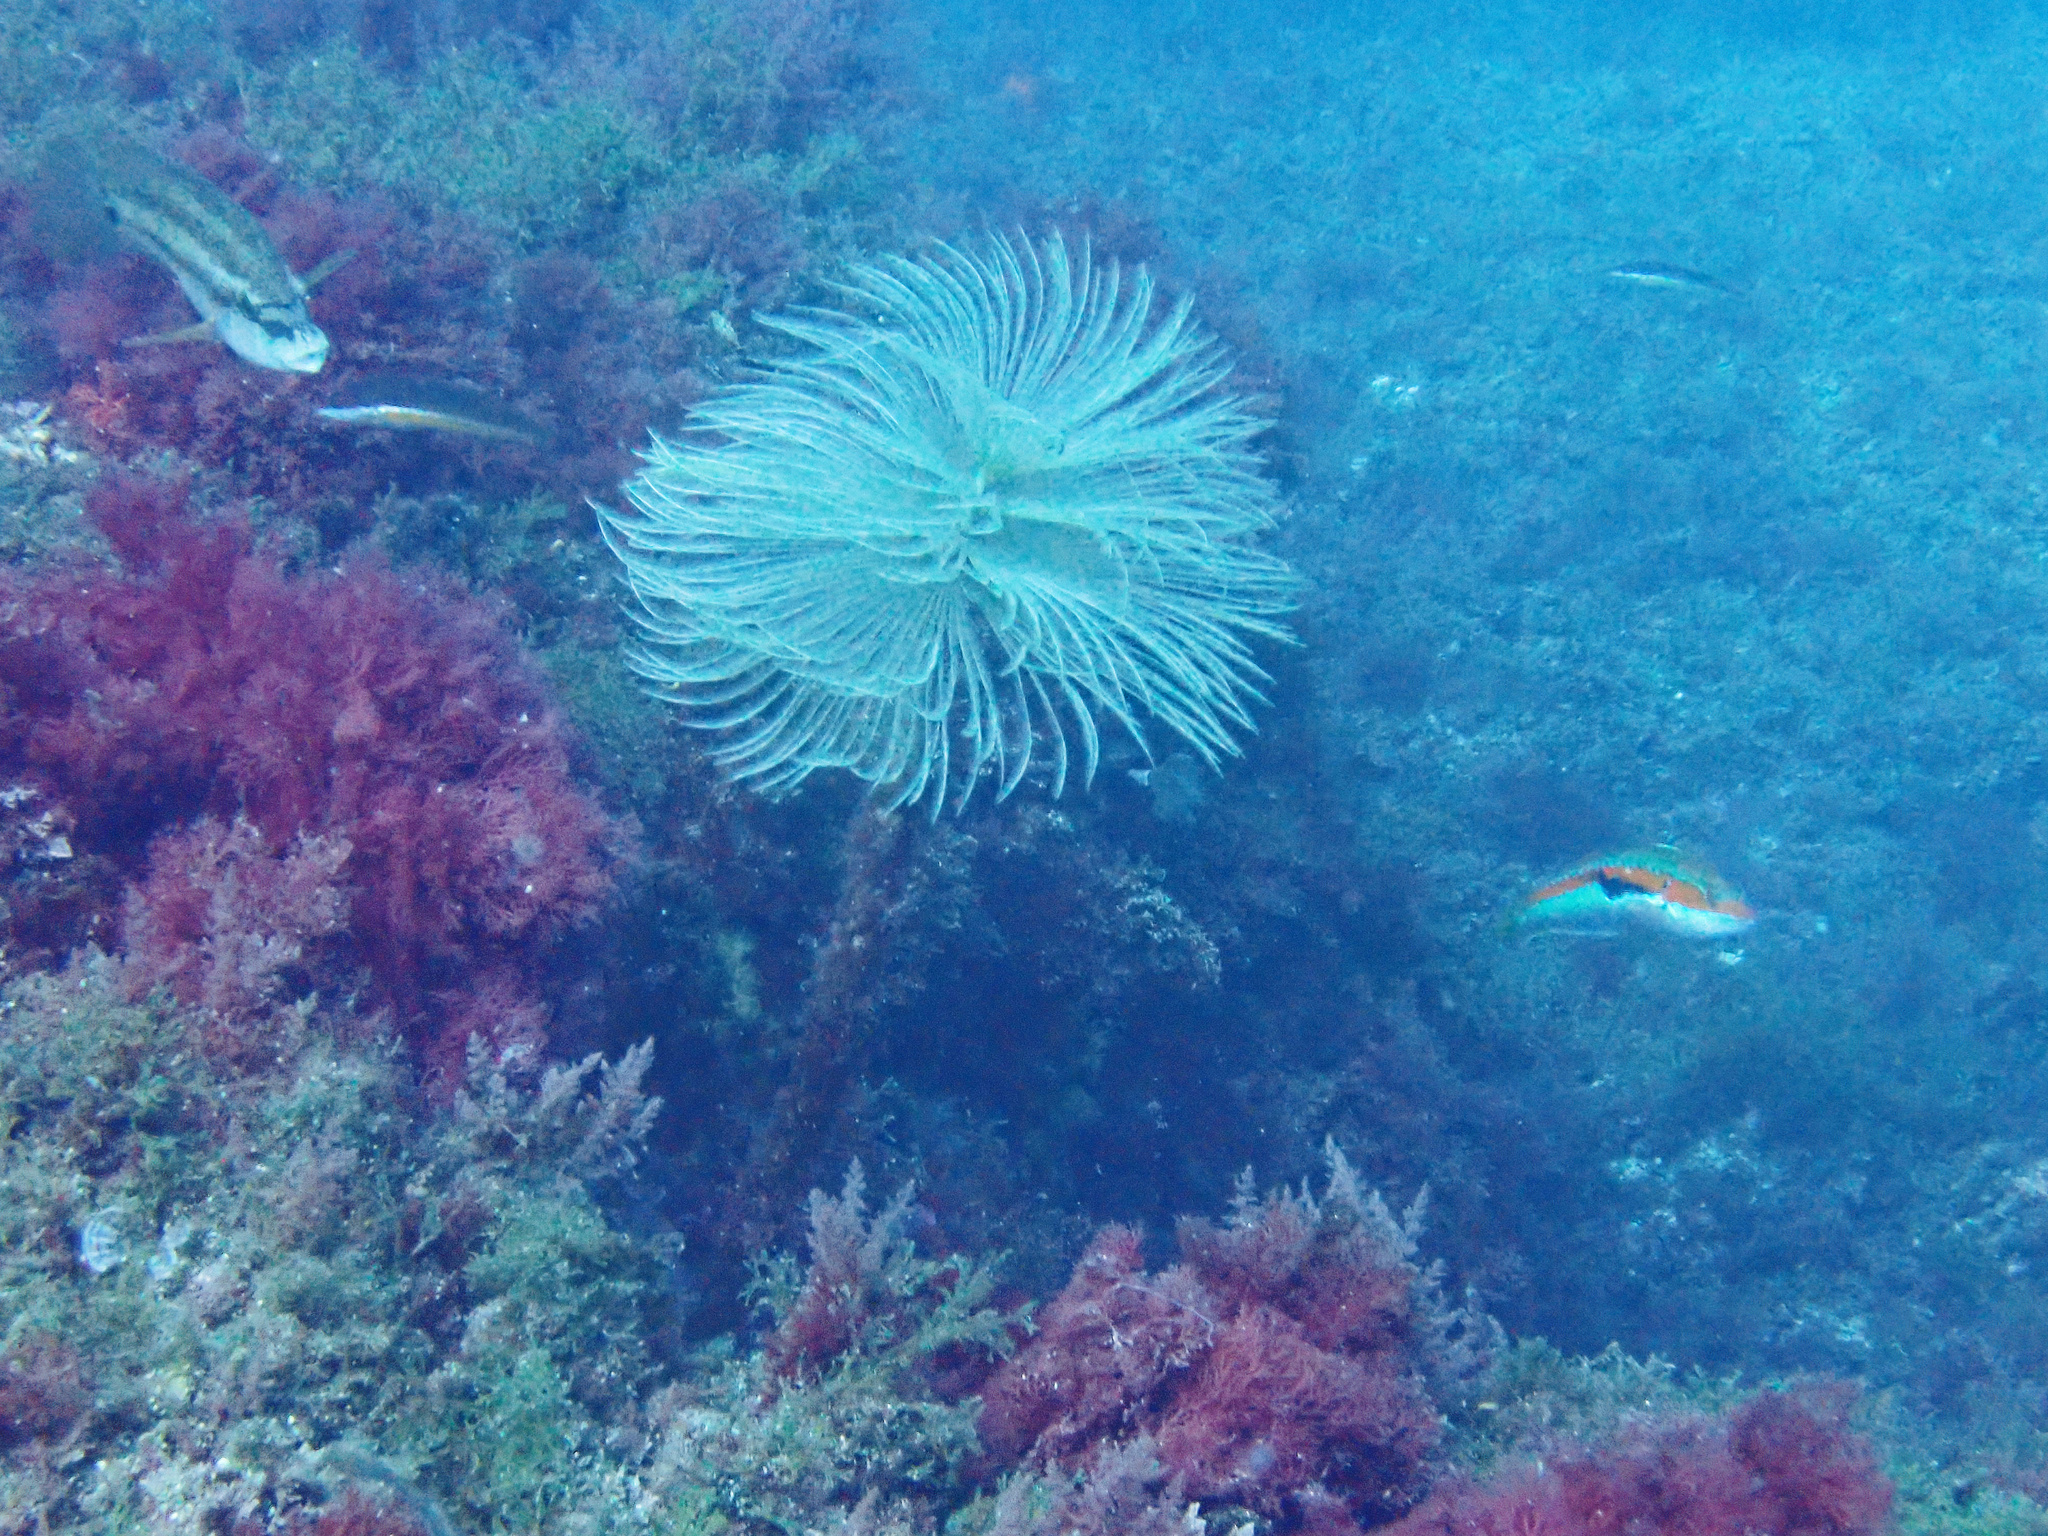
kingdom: Animalia
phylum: Annelida
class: Polychaeta
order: Sabellida
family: Sabellidae
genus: Sabella
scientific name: Sabella spallanzanii
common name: Feather duster worm
